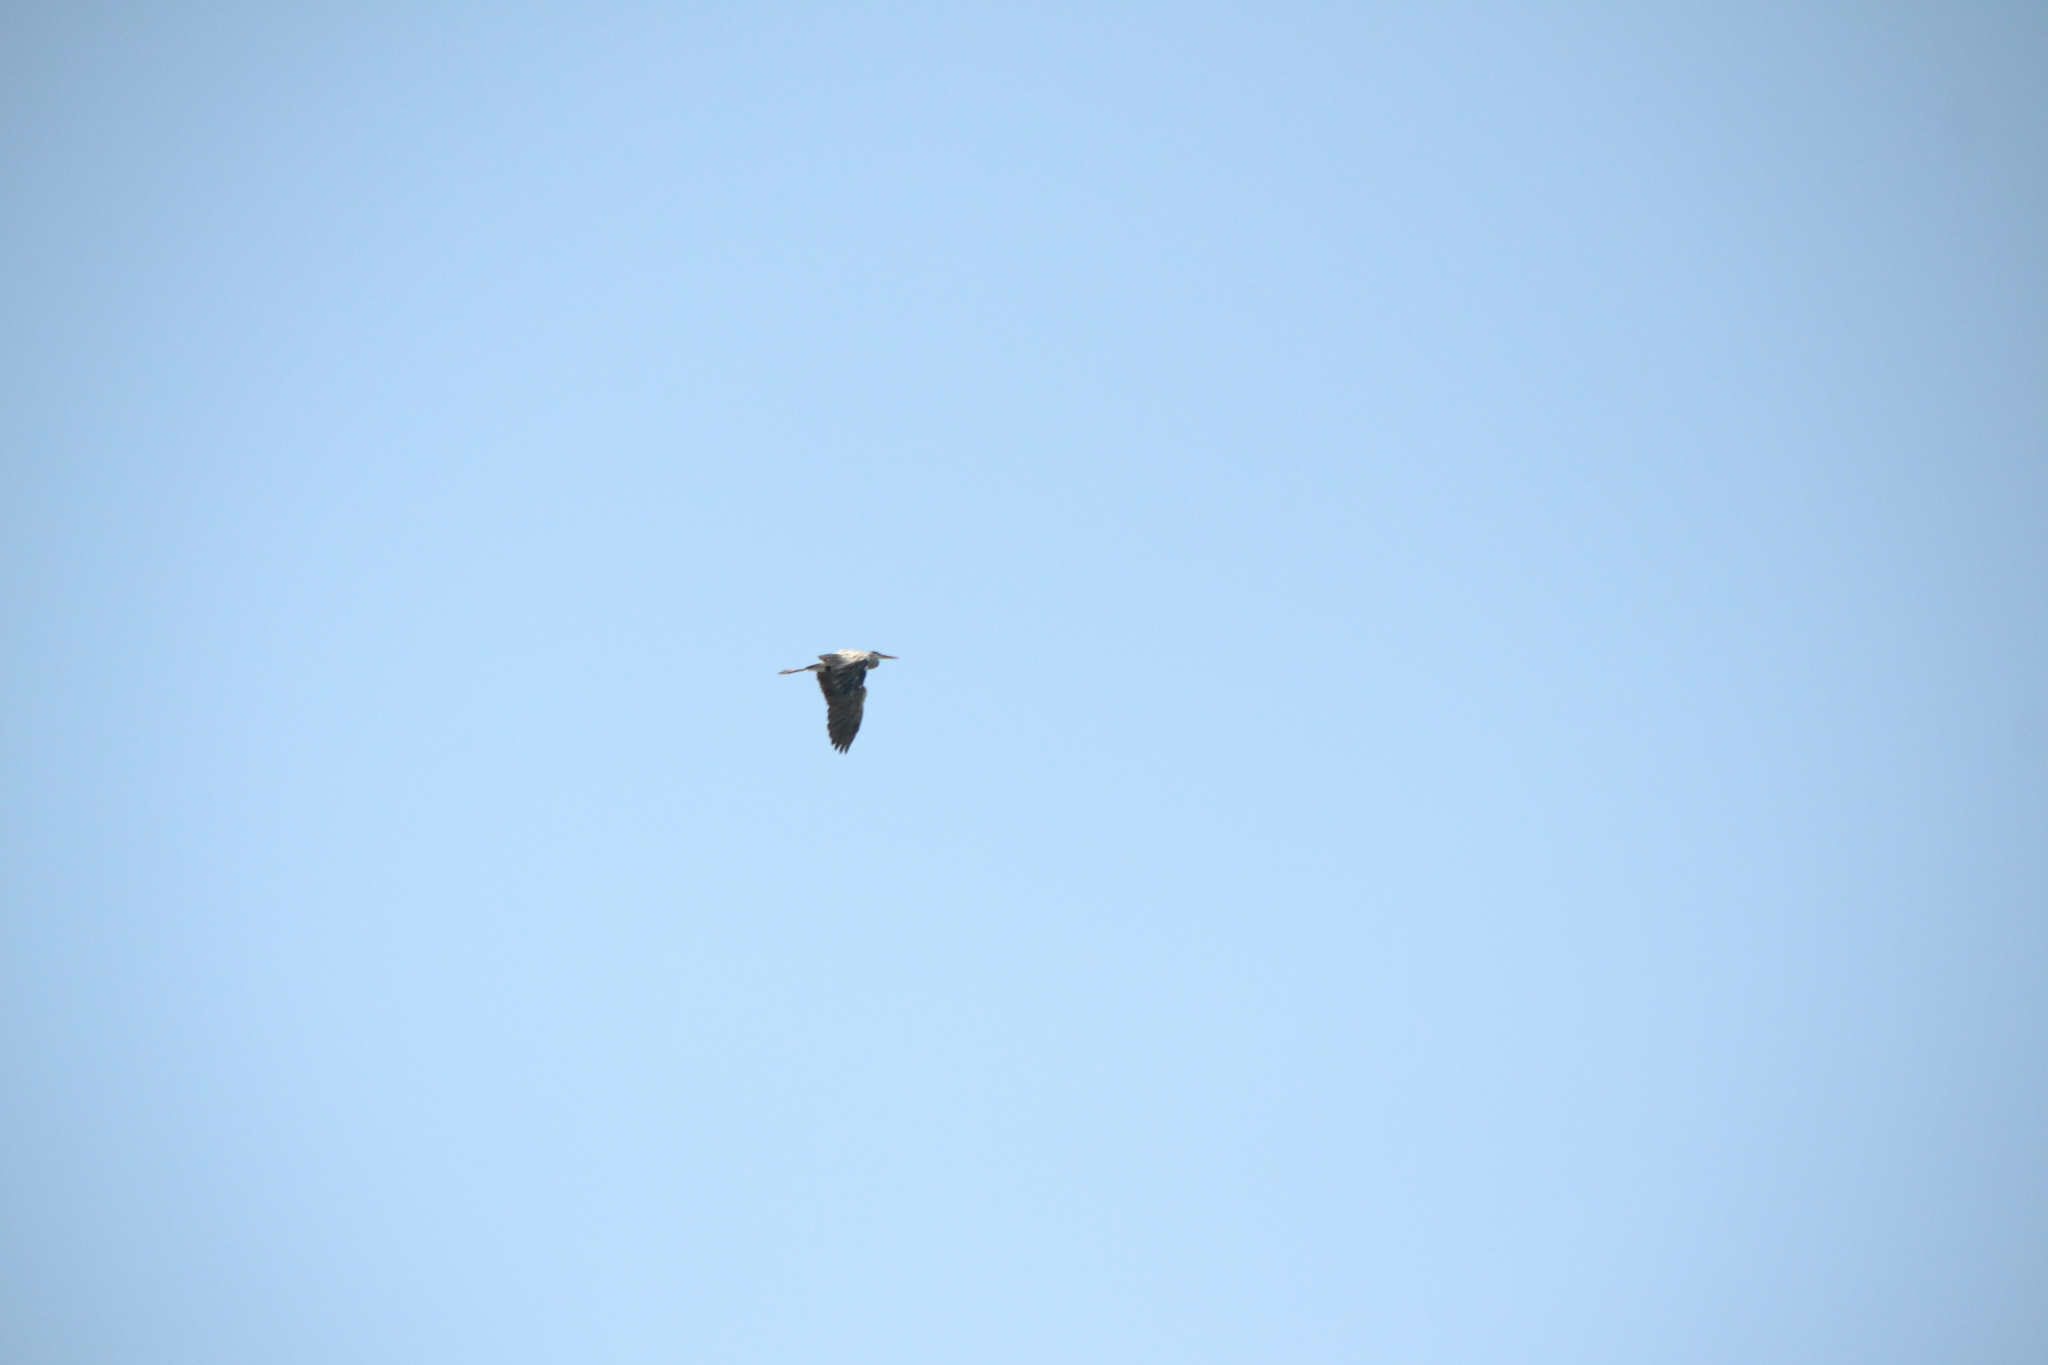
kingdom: Animalia
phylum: Chordata
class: Aves
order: Pelecaniformes
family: Ardeidae
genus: Ardea
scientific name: Ardea cinerea
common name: Grey heron
